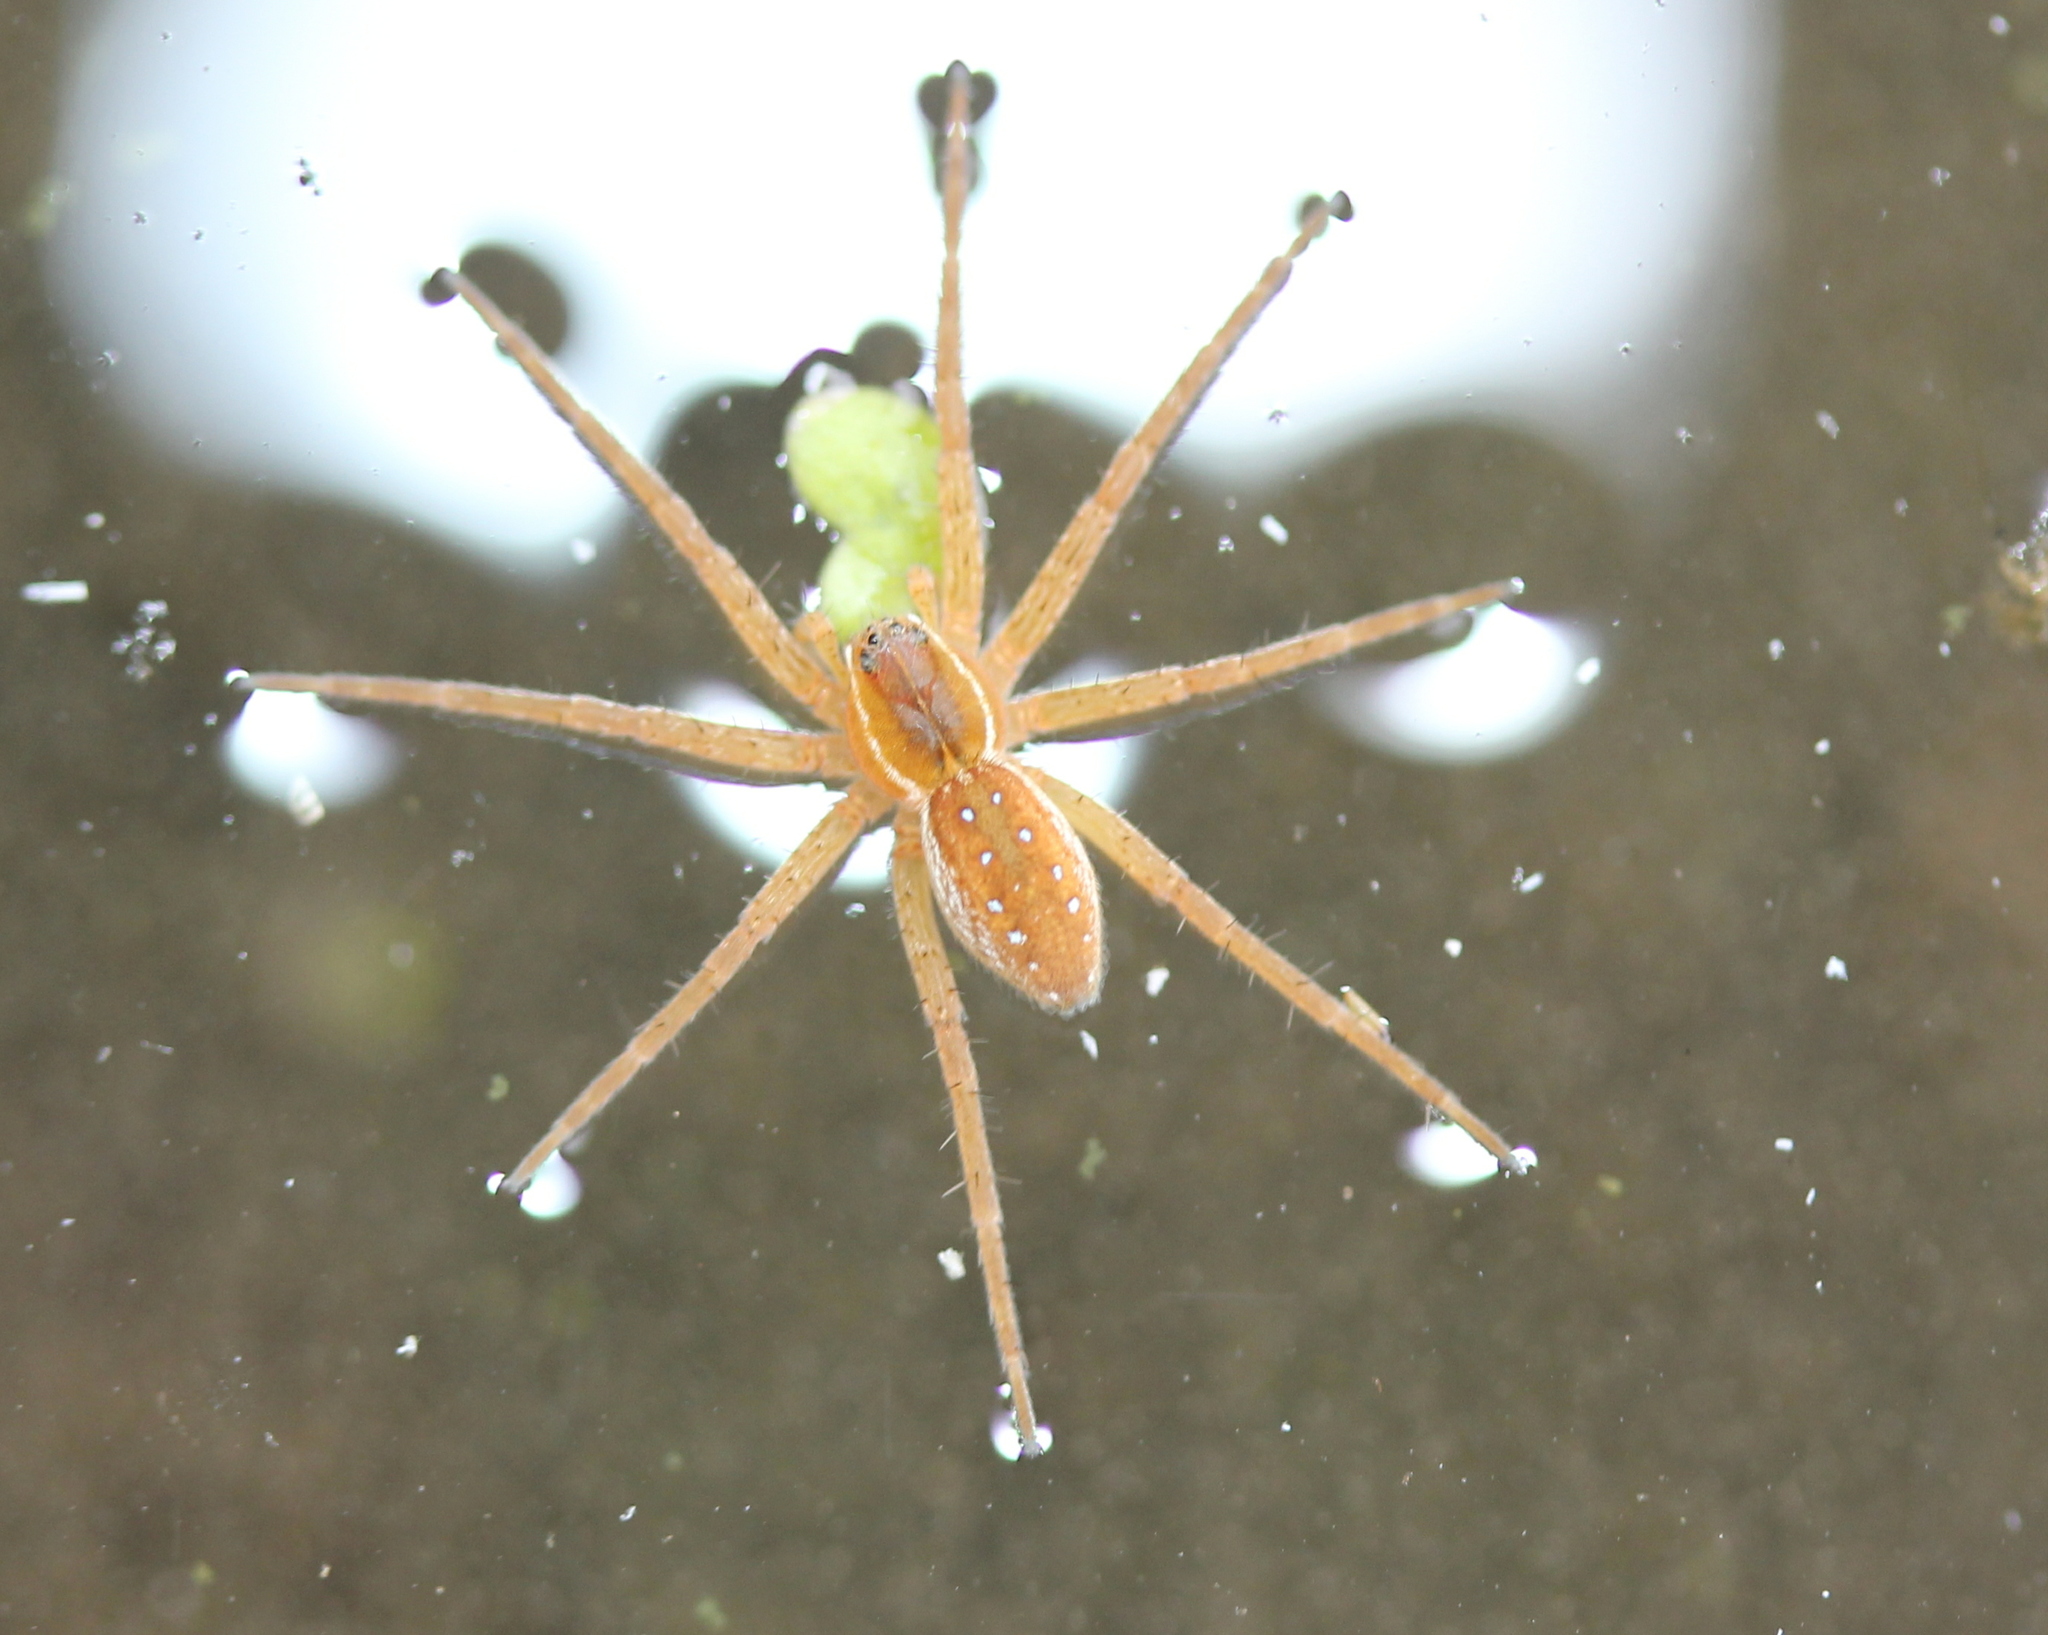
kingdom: Animalia
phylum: Arthropoda
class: Arachnida
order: Araneae
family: Pisauridae
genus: Dolomedes
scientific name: Dolomedes triton
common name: Six-spotted fishing spider
